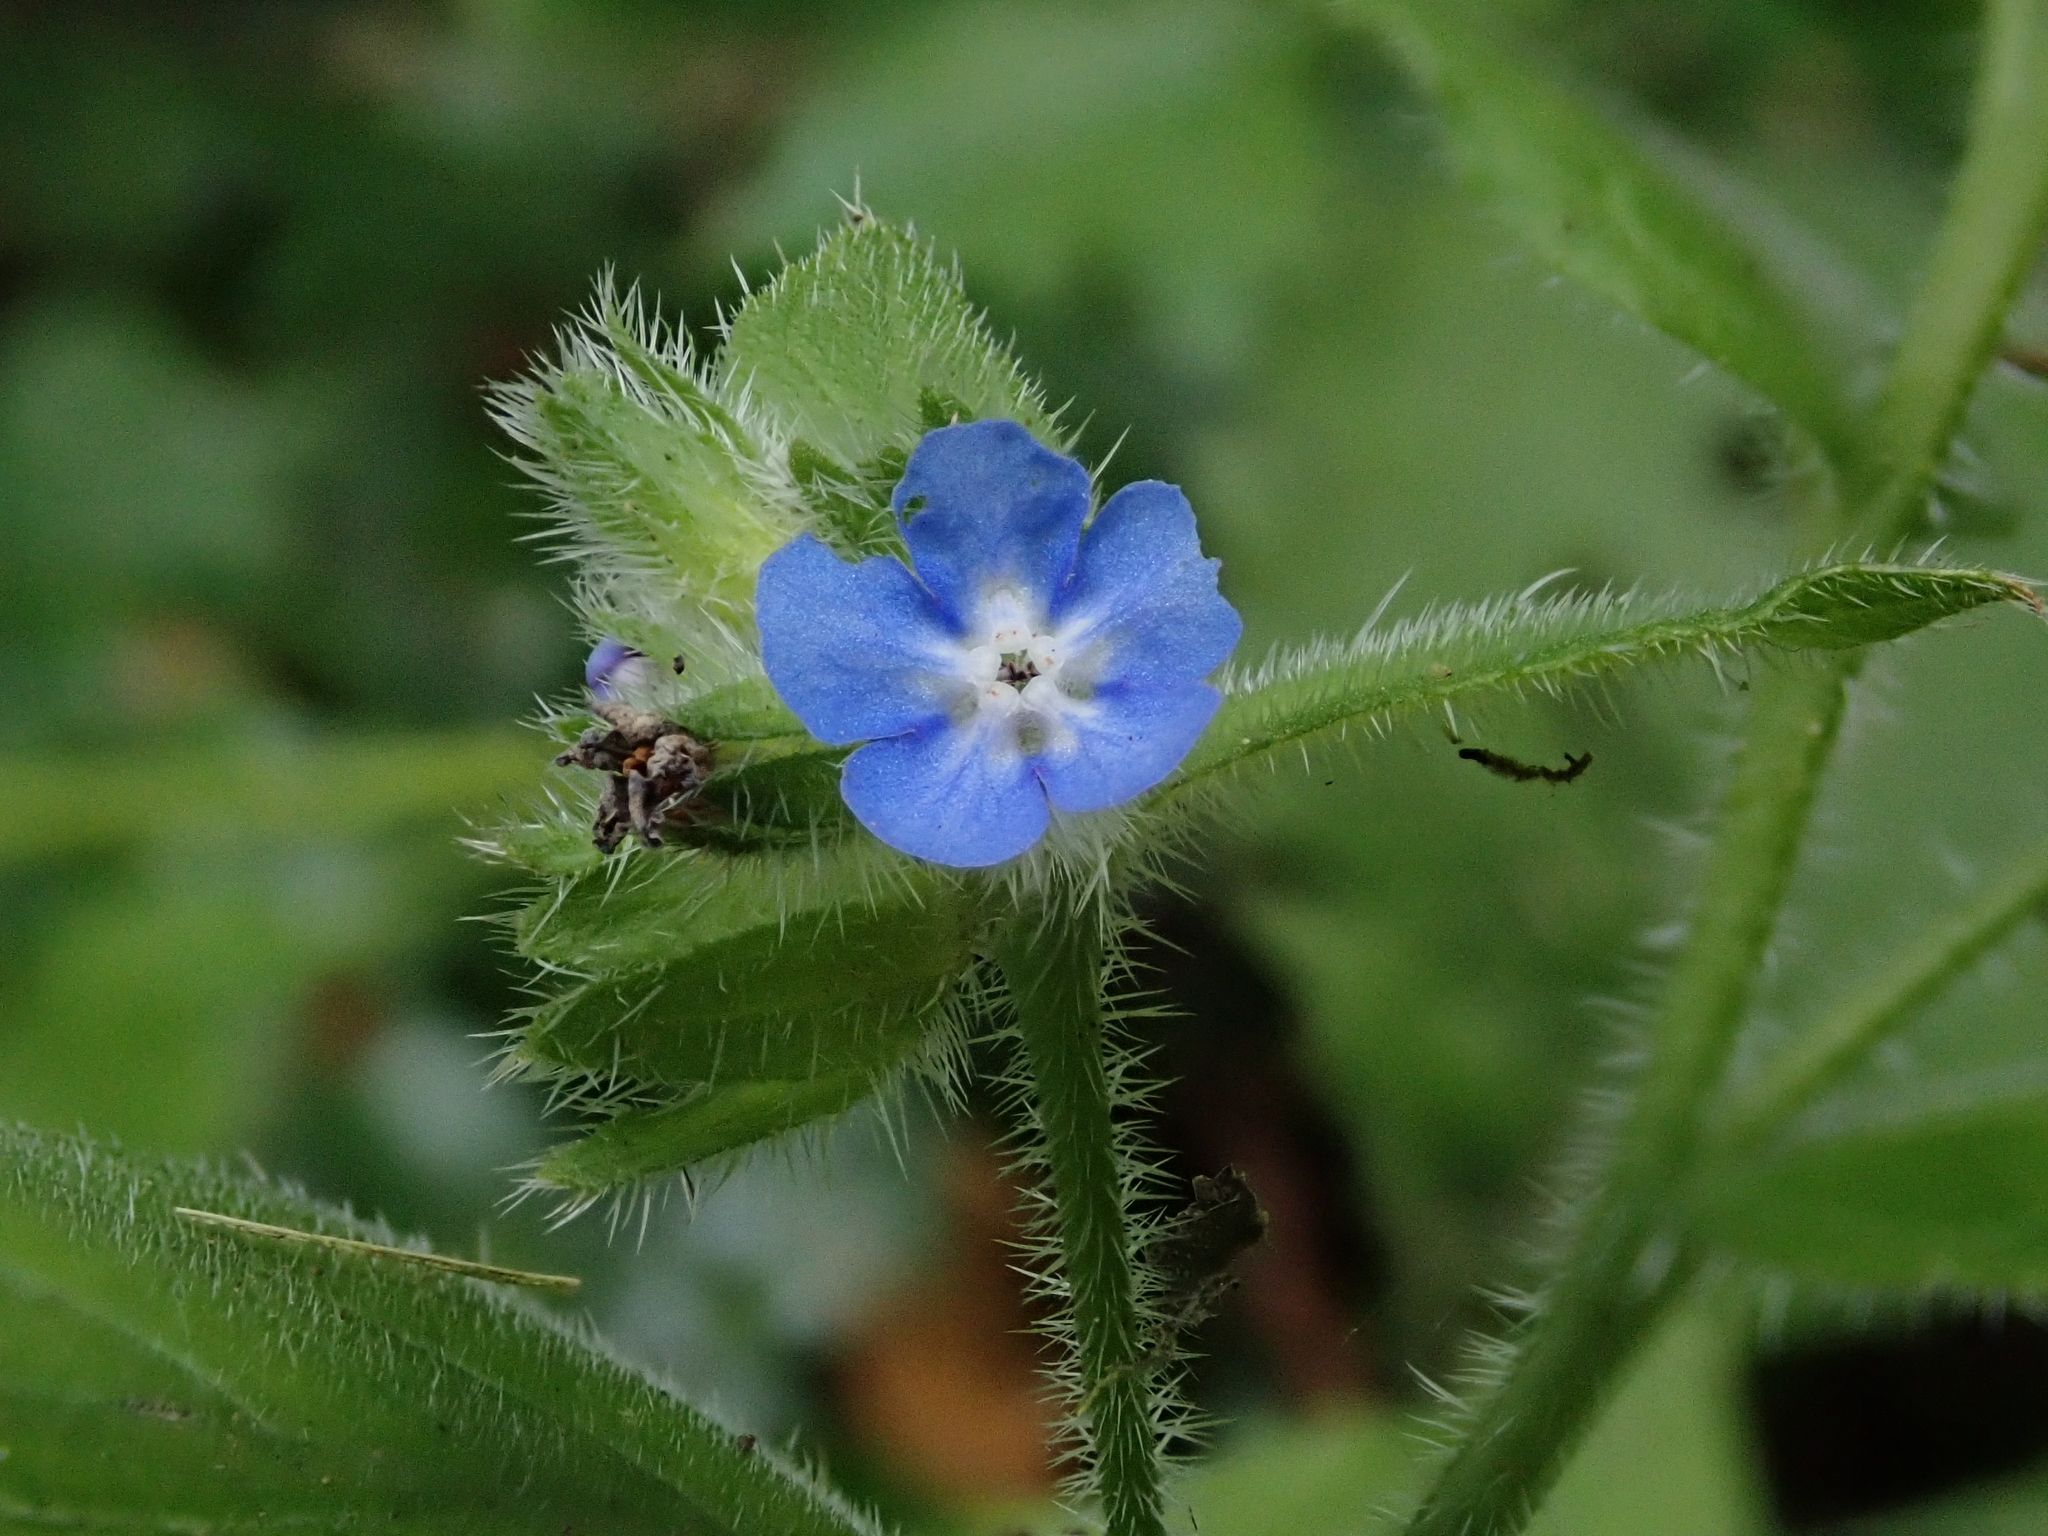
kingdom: Plantae
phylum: Tracheophyta
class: Magnoliopsida
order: Boraginales
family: Boraginaceae
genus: Pentaglottis
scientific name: Pentaglottis sempervirens
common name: Green alkanet
